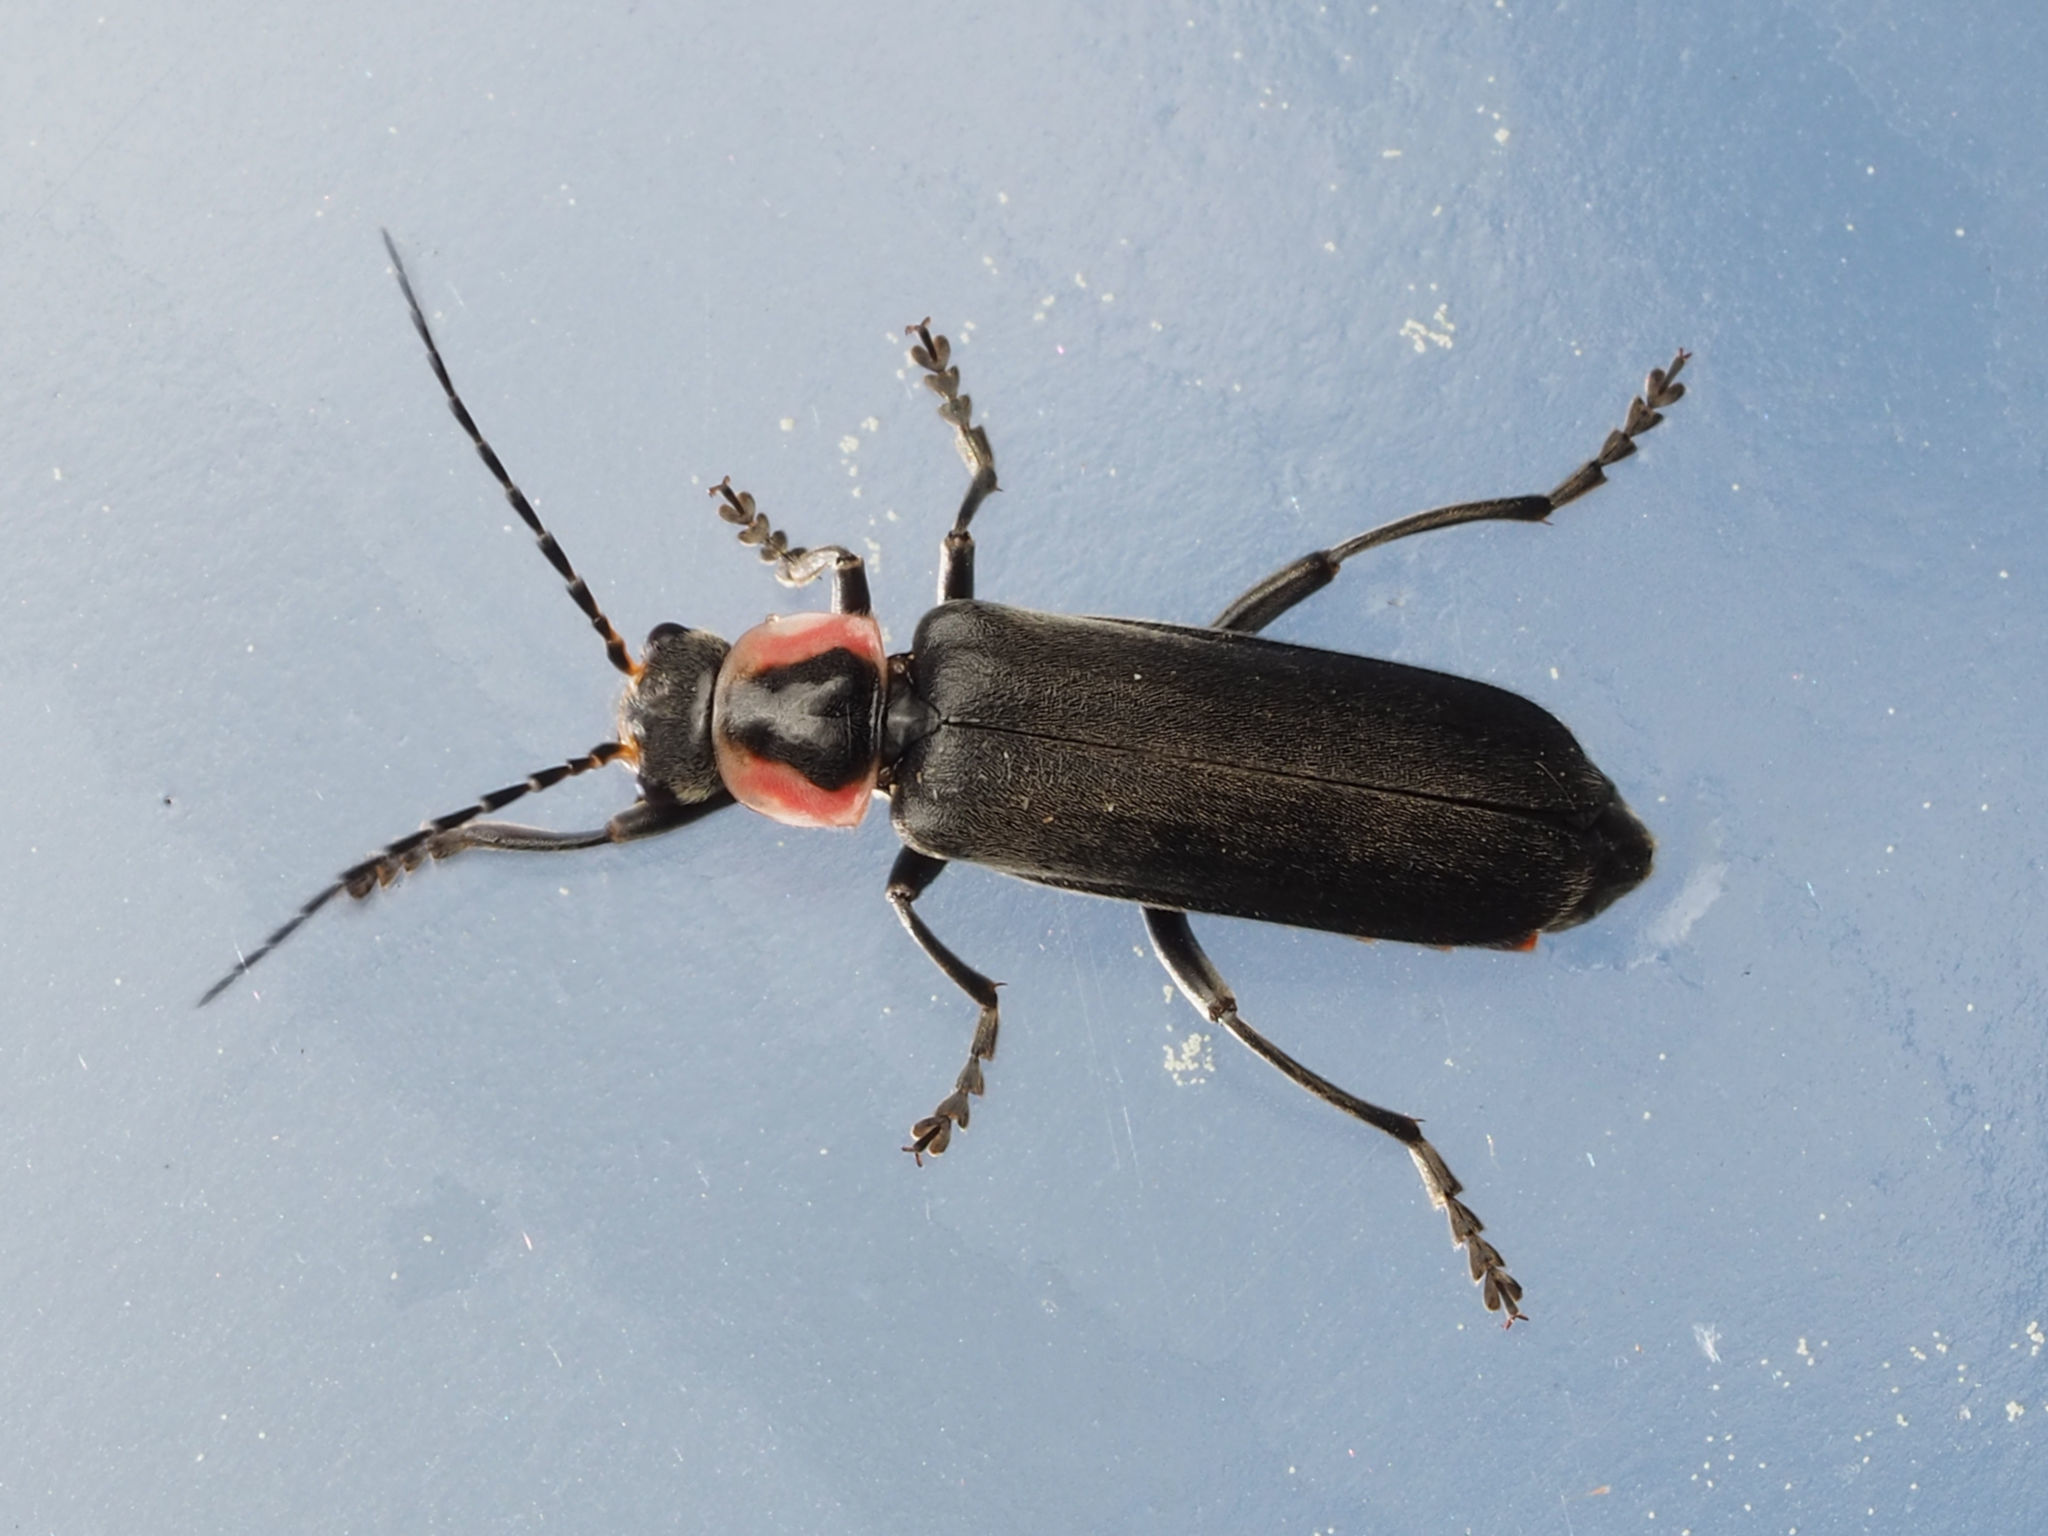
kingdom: Animalia
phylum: Arthropoda
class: Insecta
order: Coleoptera
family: Cantharidae
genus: Rhaxonycha
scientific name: Rhaxonycha carolina
